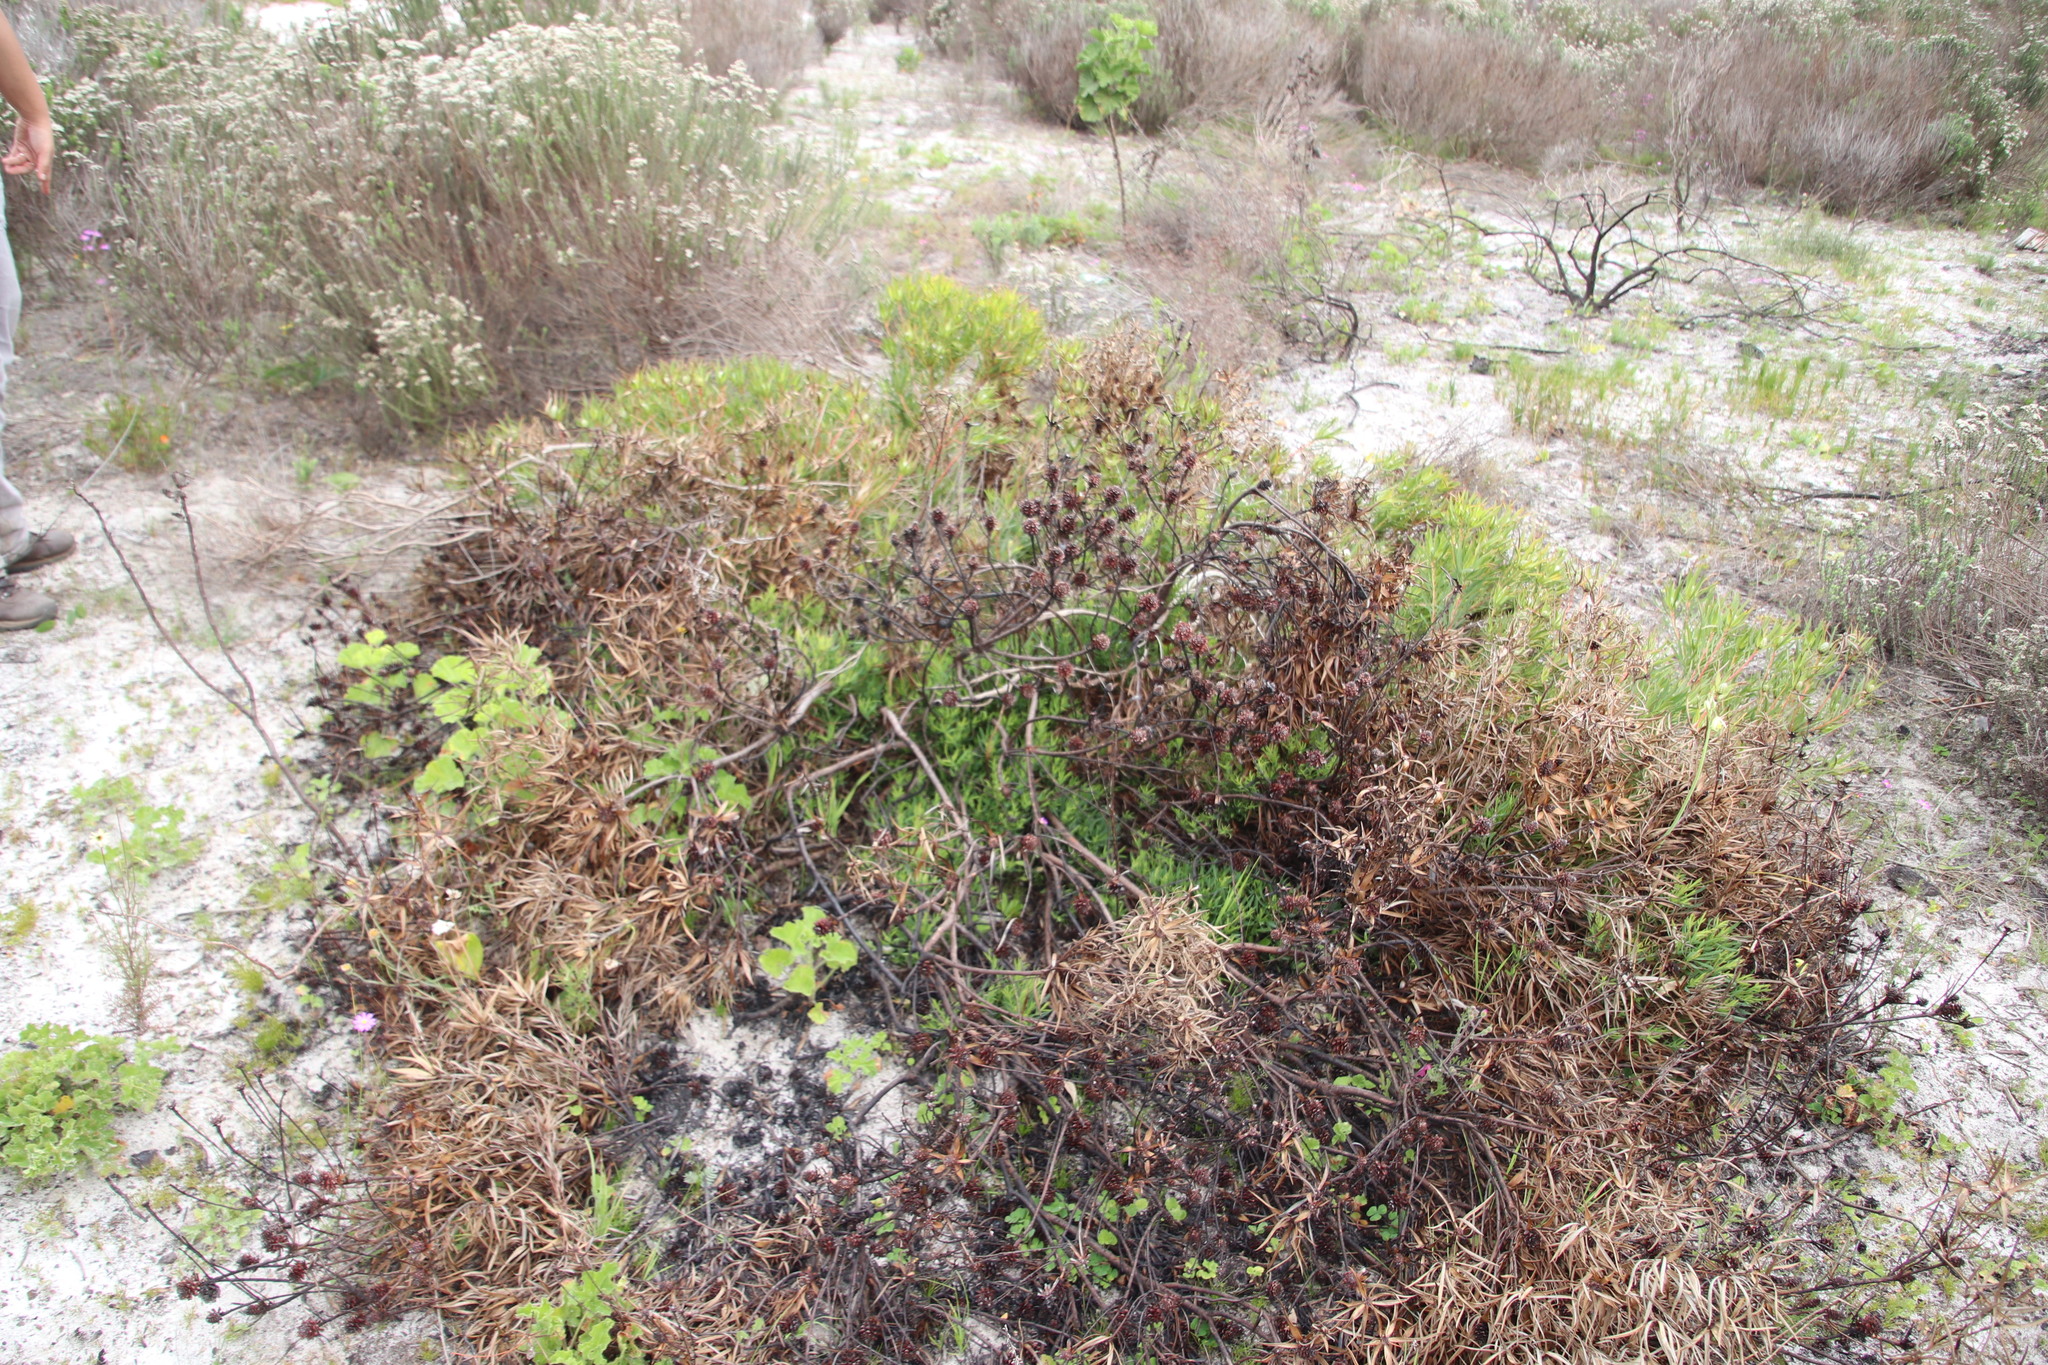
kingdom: Plantae
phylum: Tracheophyta
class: Magnoliopsida
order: Proteales
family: Proteaceae
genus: Leucadendron
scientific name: Leucadendron salignum
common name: Common sunshine conebush
